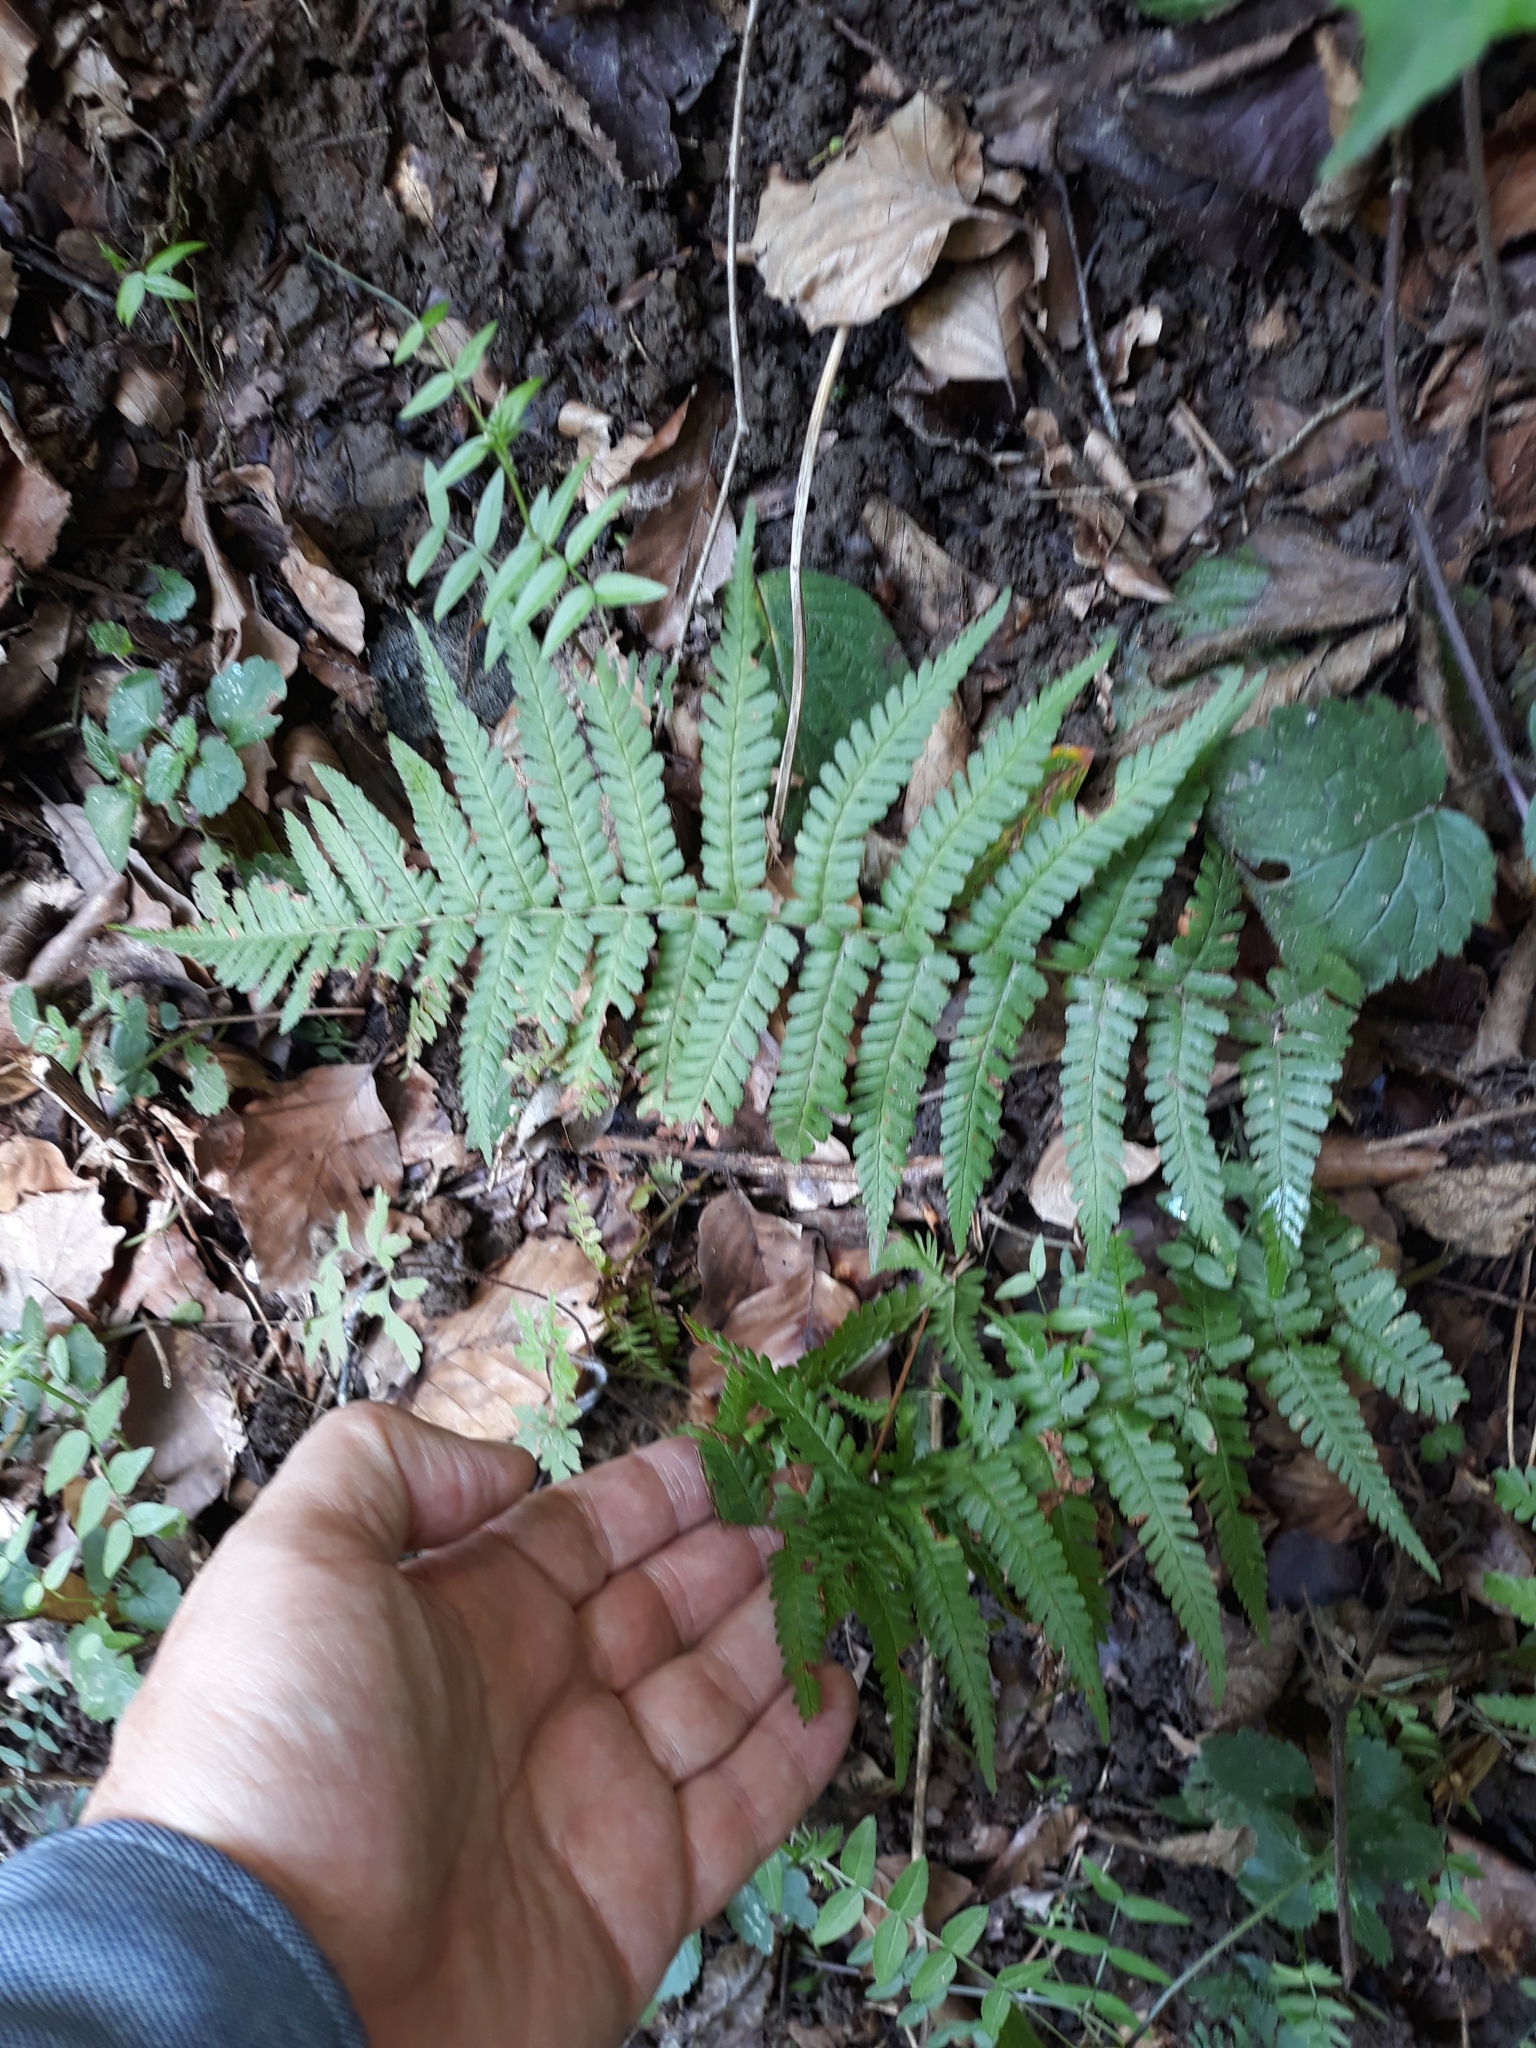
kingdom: Plantae
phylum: Tracheophyta
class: Polypodiopsida
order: Polypodiales
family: Dryopteridaceae
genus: Dryopteris
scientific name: Dryopteris filix-mas
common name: Male fern
